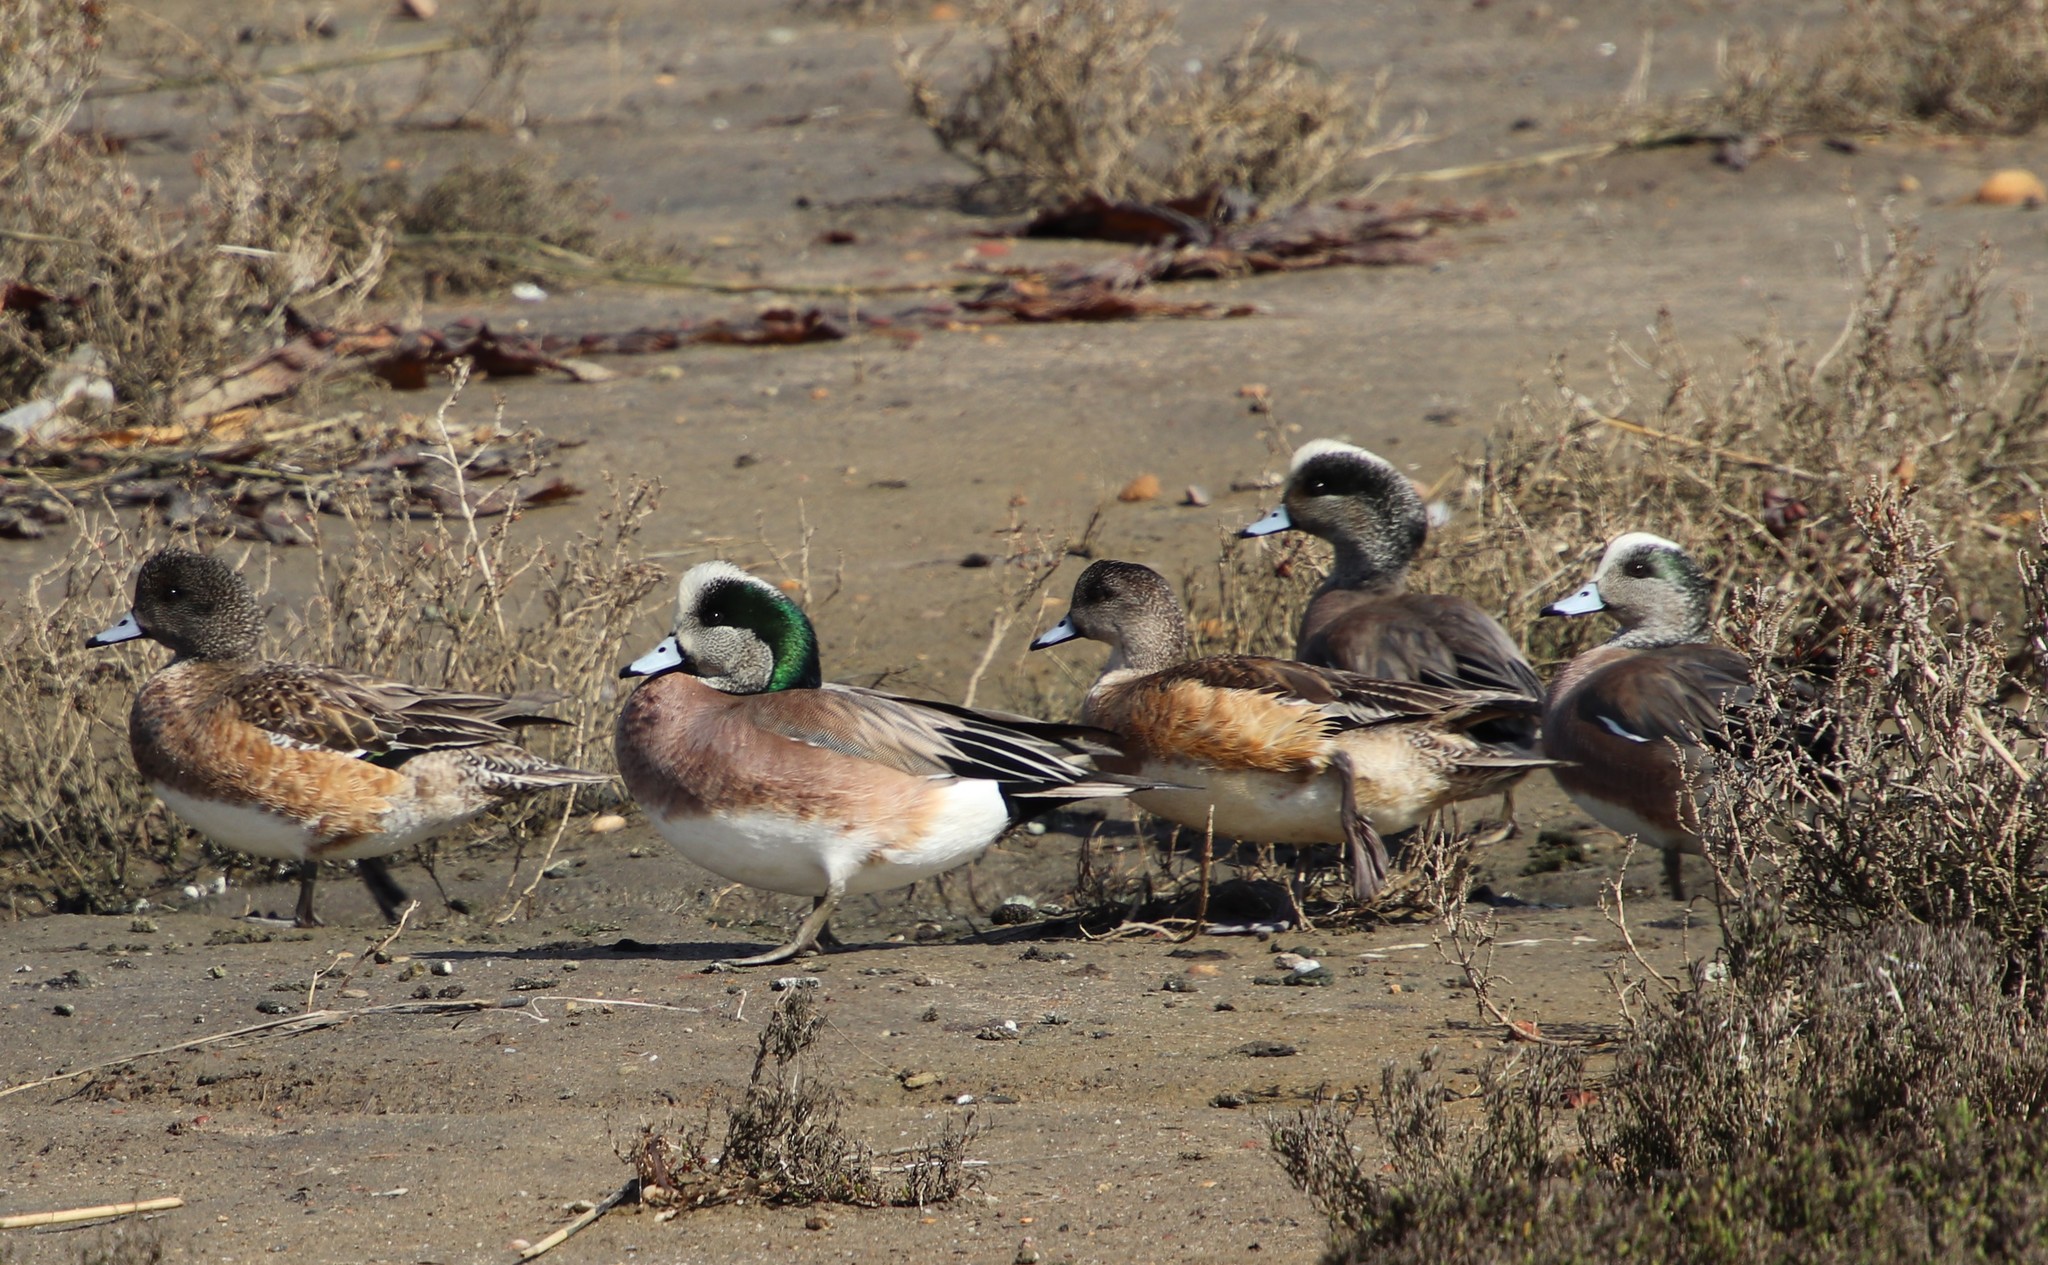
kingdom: Animalia
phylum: Chordata
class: Aves
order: Anseriformes
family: Anatidae
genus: Mareca
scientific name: Mareca americana
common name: American wigeon
